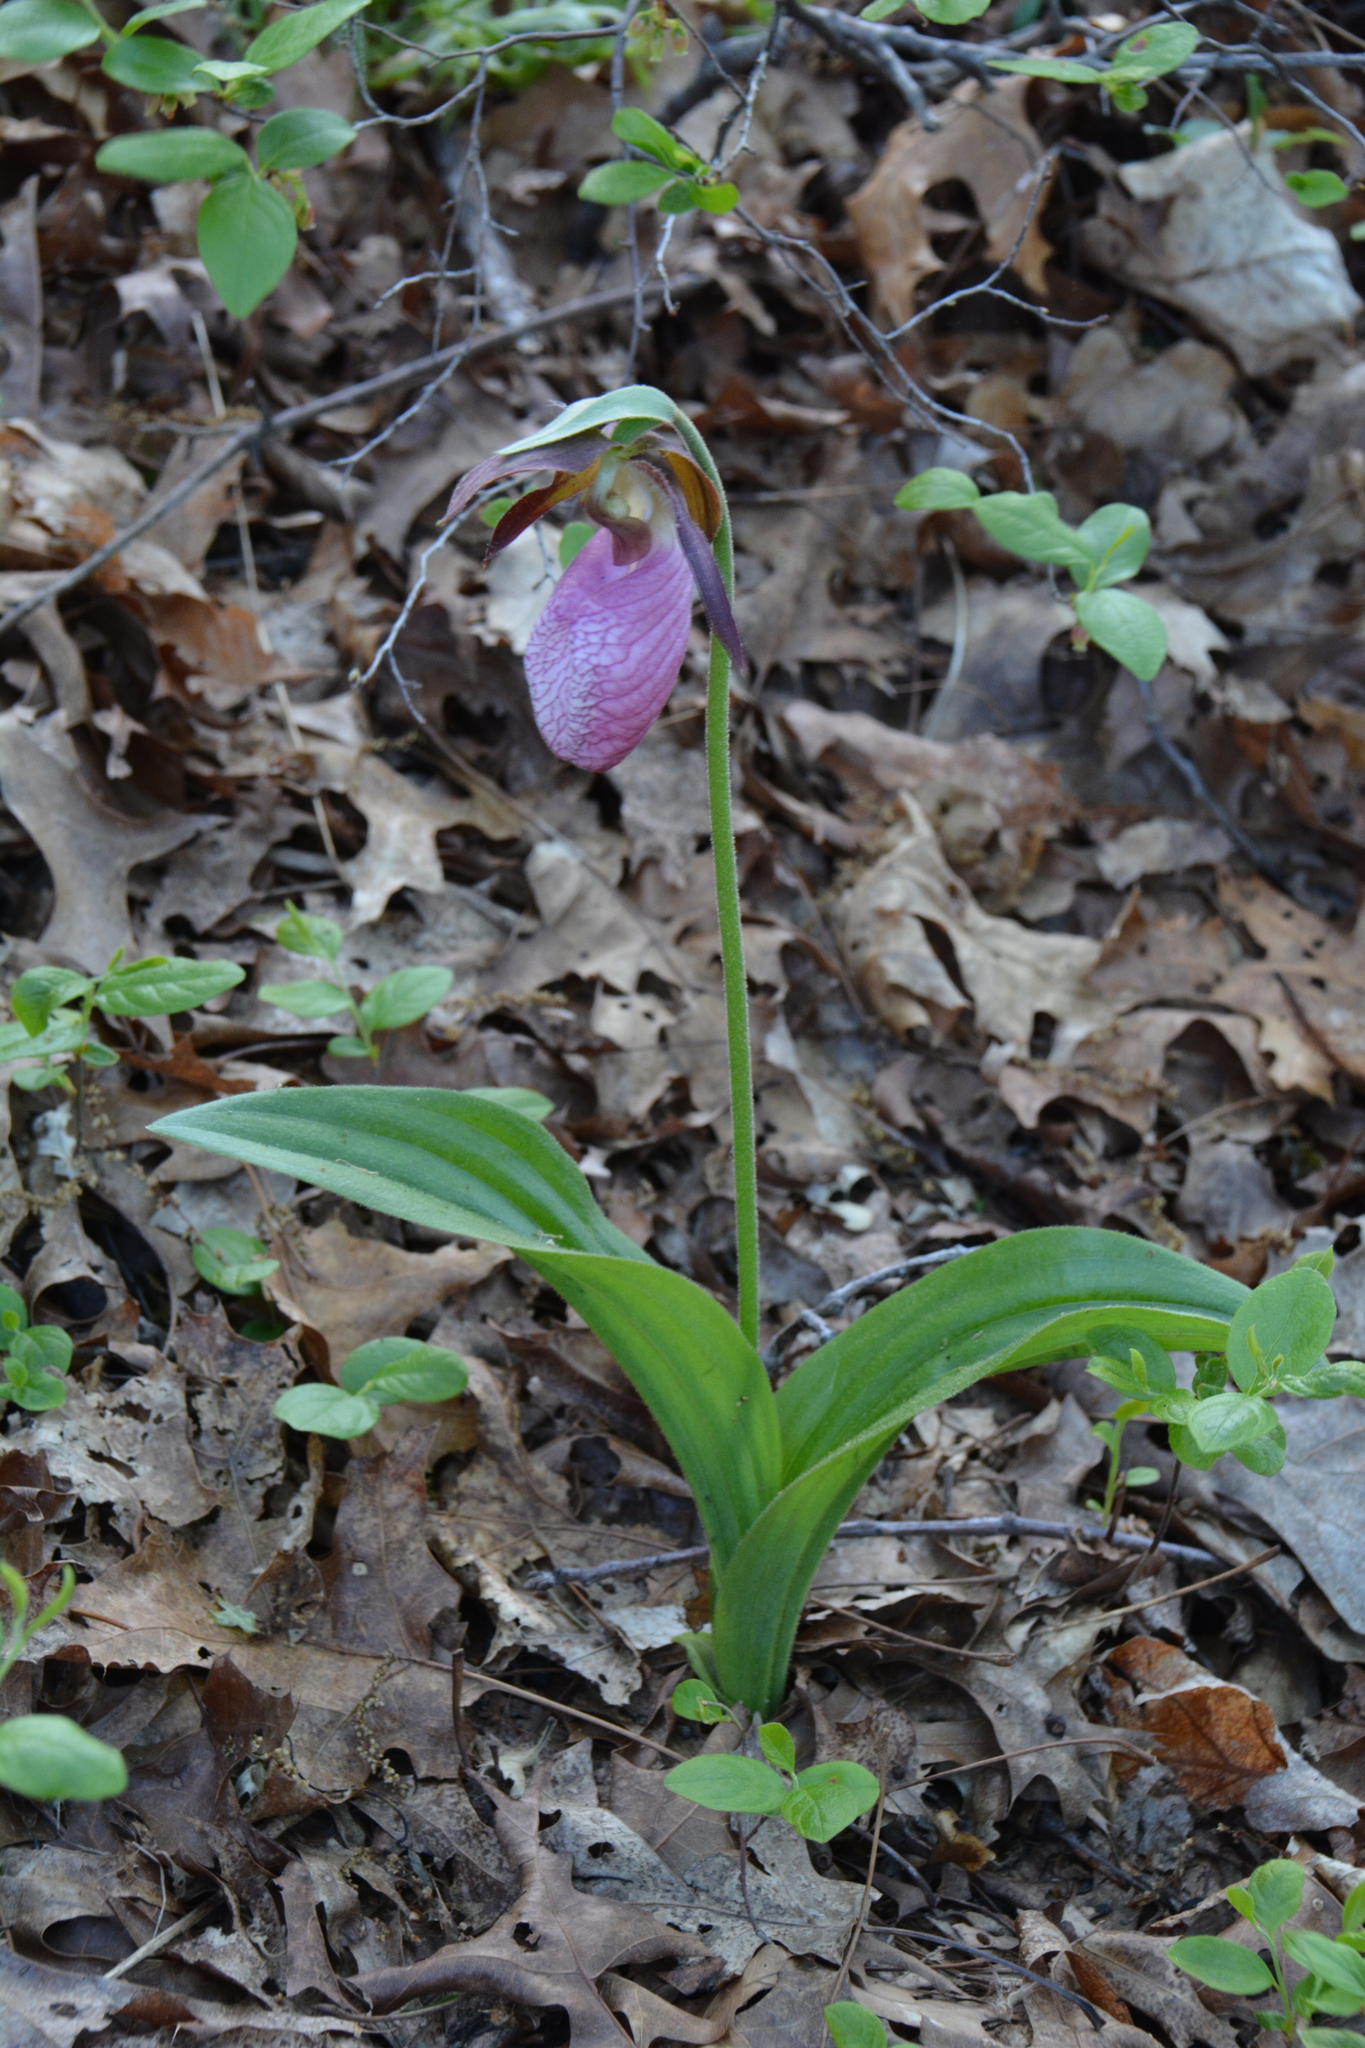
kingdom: Plantae
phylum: Tracheophyta
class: Liliopsida
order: Asparagales
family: Orchidaceae
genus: Cypripedium
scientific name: Cypripedium acaule
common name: Pink lady's-slipper
